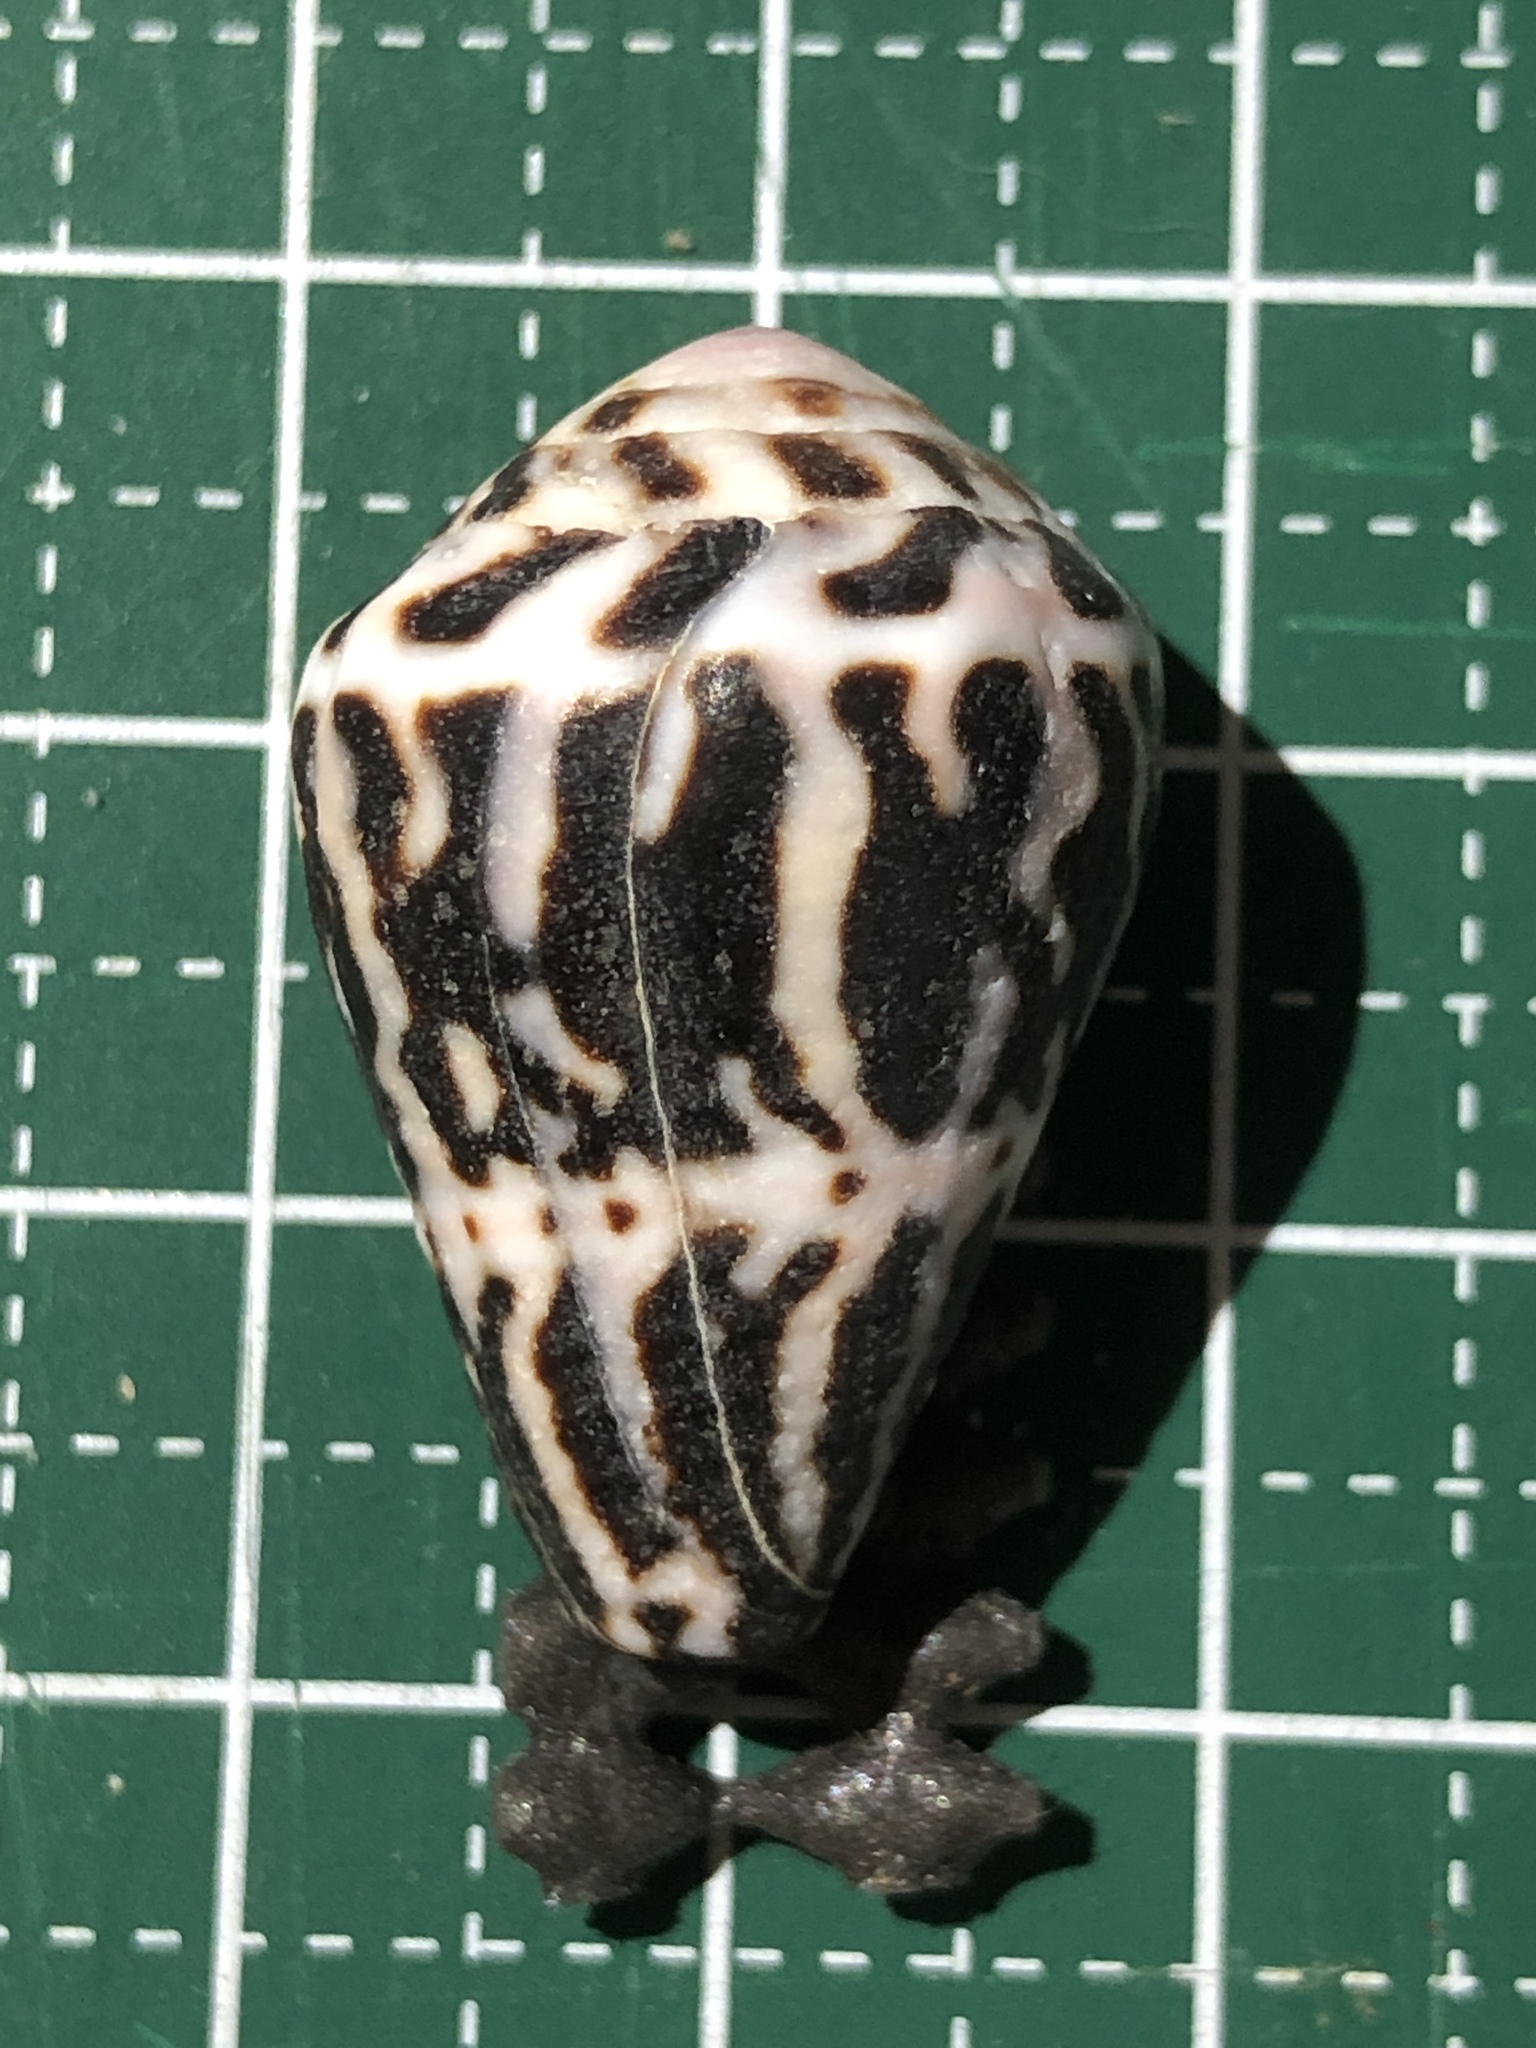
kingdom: Animalia
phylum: Mollusca
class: Gastropoda
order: Neogastropoda
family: Conidae
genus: Conus
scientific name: Conus chaldaeus
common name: Astrologer's cone
